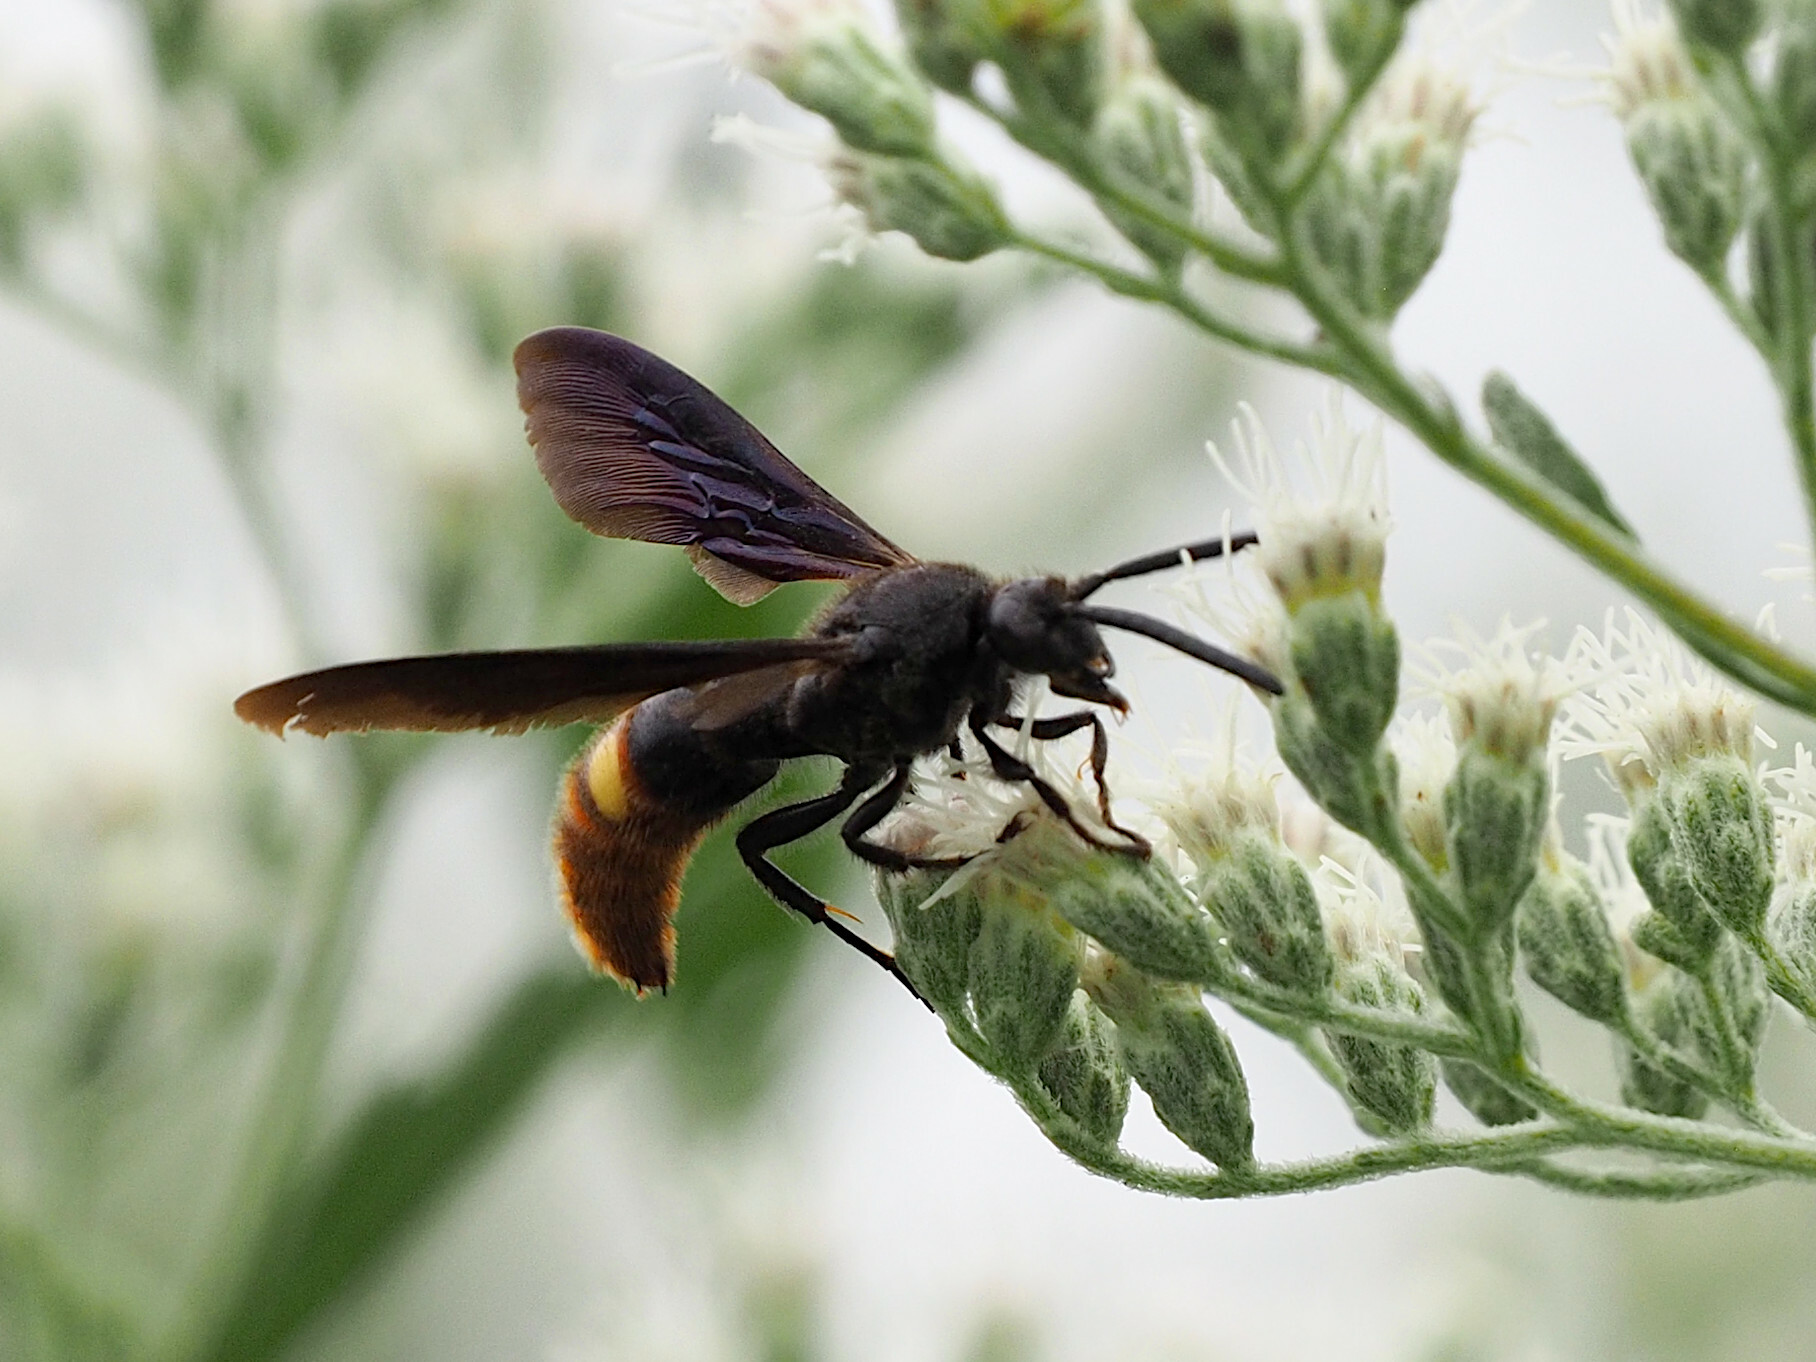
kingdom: Animalia
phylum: Arthropoda
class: Insecta
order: Hymenoptera
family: Scoliidae
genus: Scolia
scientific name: Scolia dubia
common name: Blue-winged scoliid wasp
